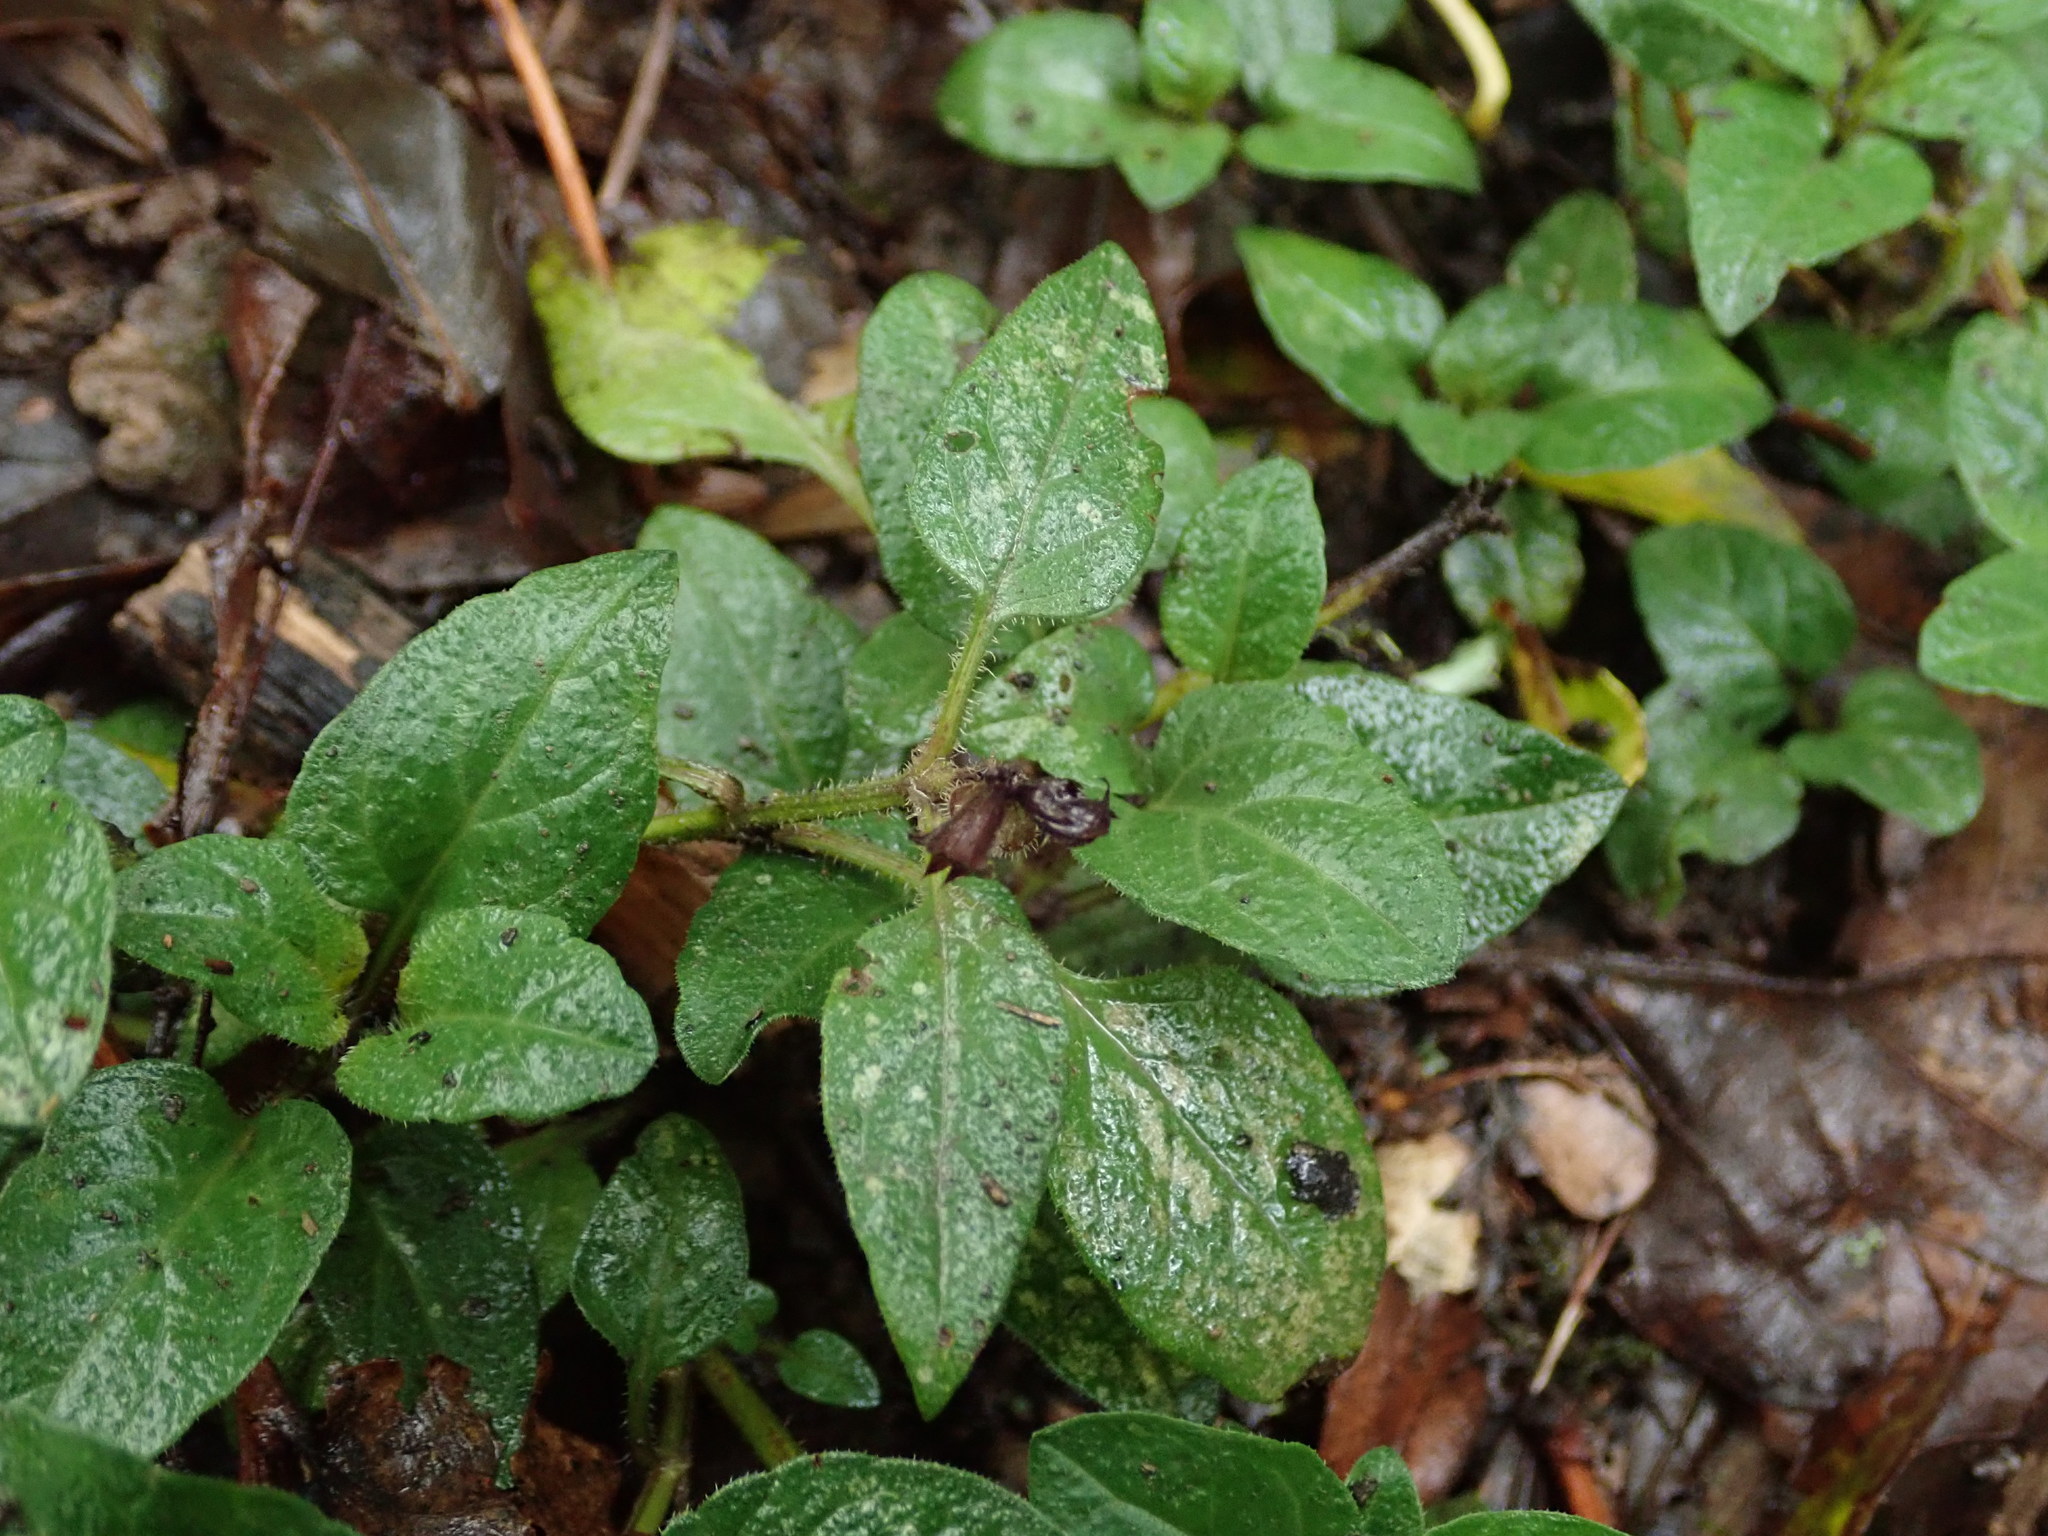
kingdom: Plantae
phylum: Tracheophyta
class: Magnoliopsida
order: Lamiales
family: Lamiaceae
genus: Prunella
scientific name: Prunella vulgaris
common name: Heal-all
